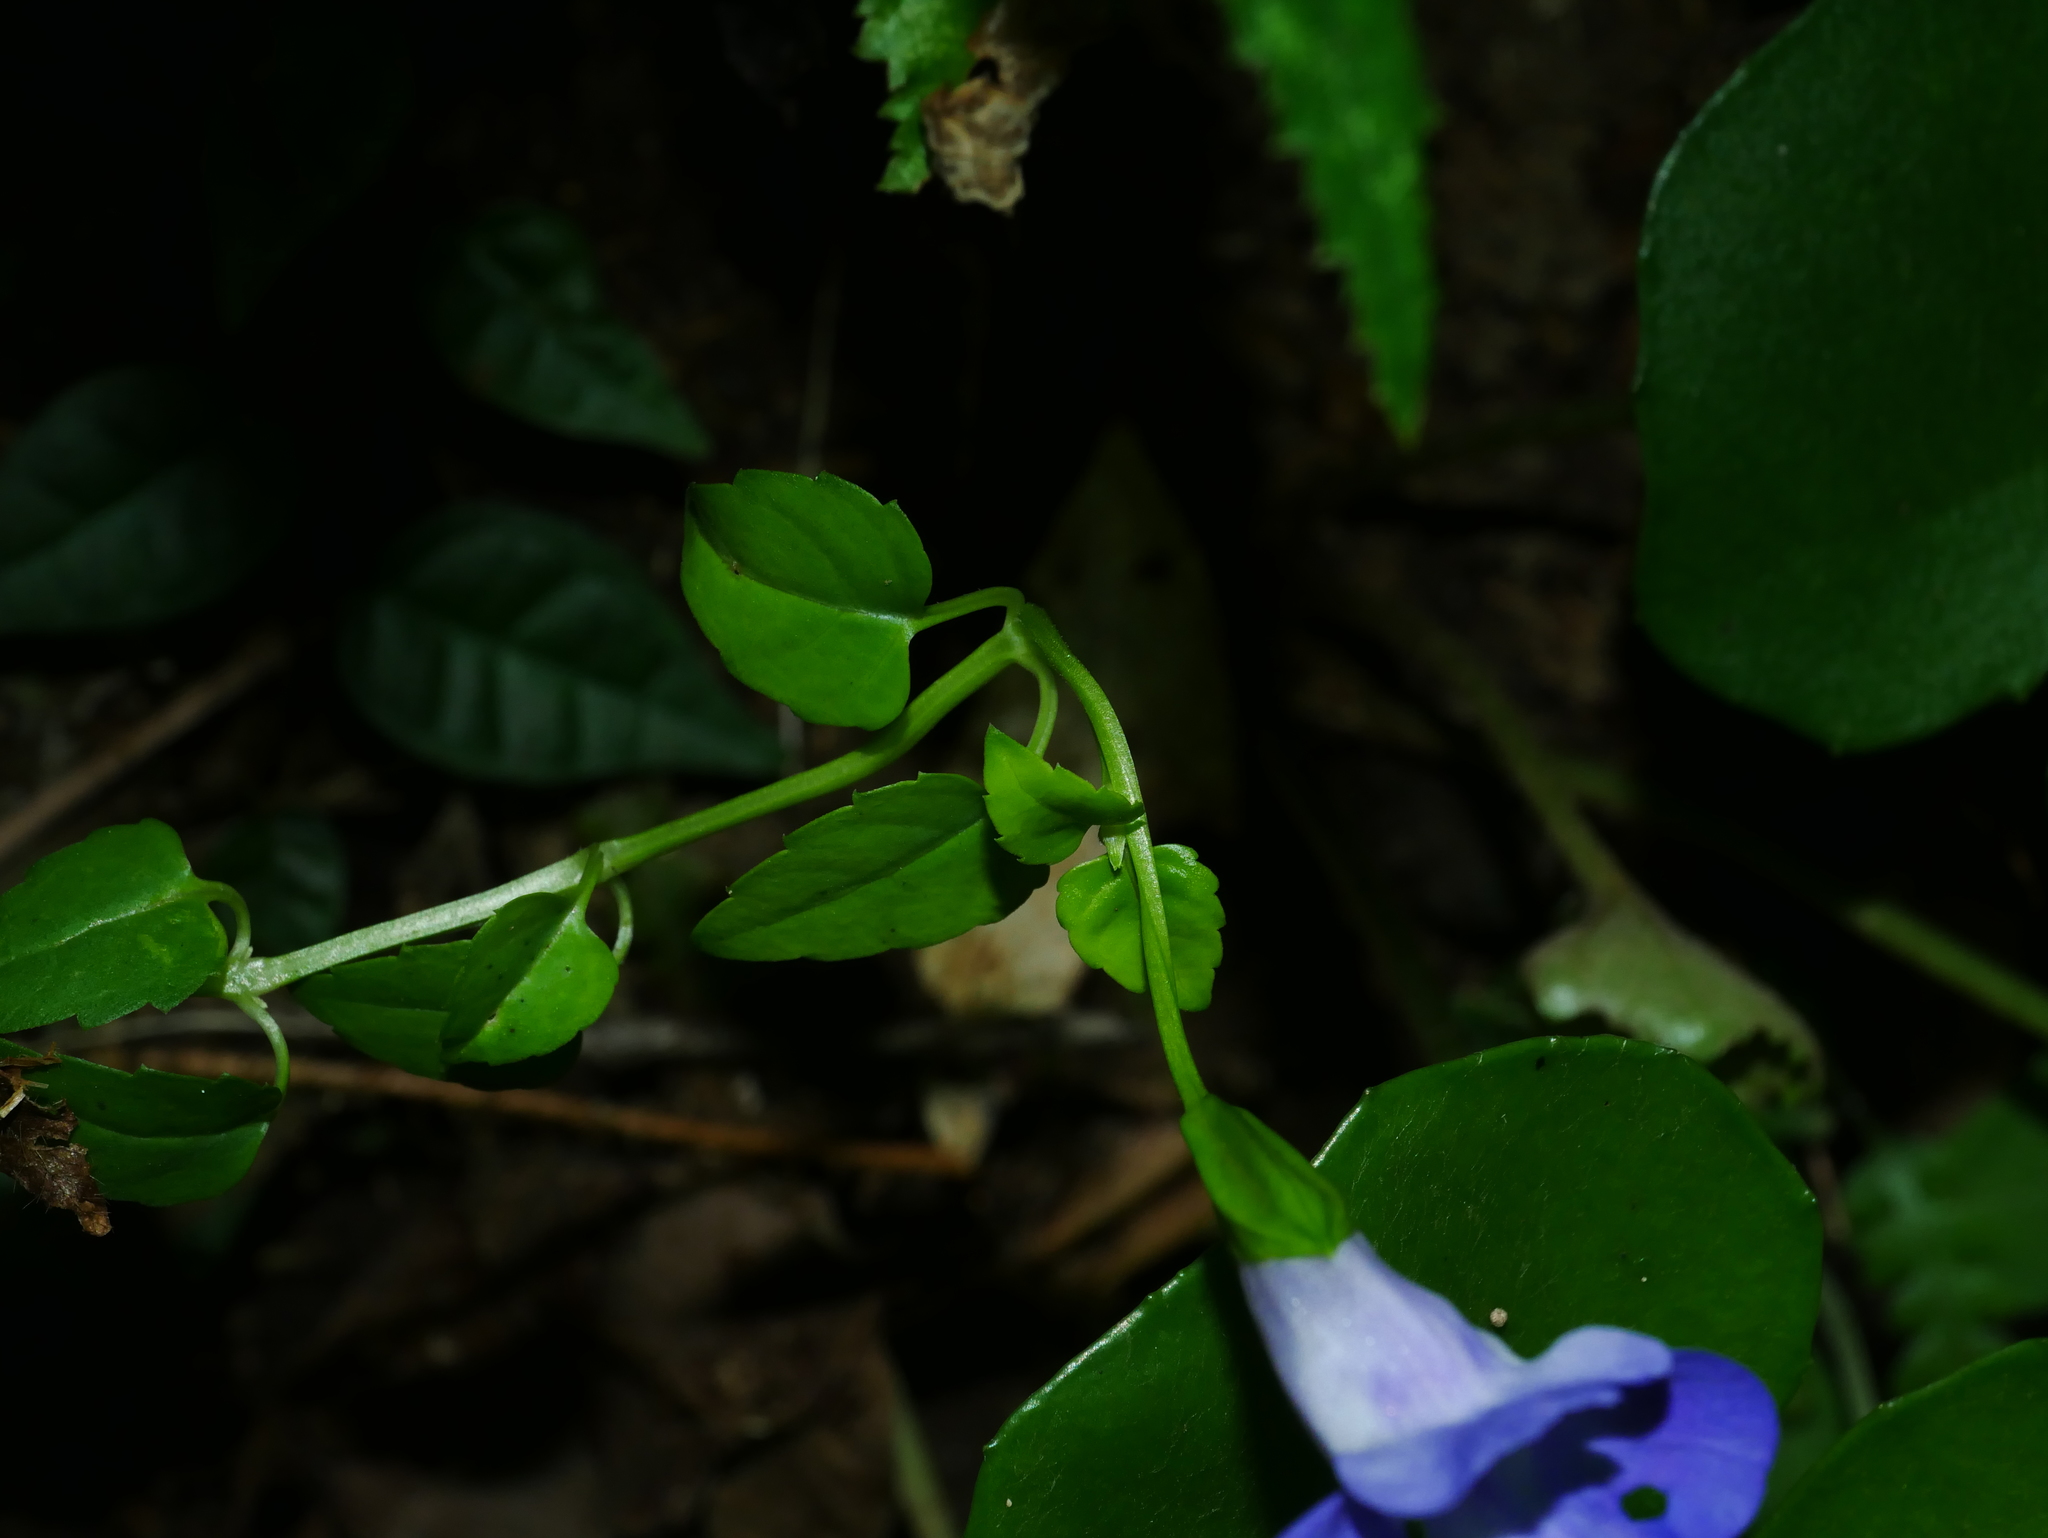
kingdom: Plantae
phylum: Tracheophyta
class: Magnoliopsida
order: Lamiales
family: Linderniaceae
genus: Torenia
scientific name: Torenia concolor
